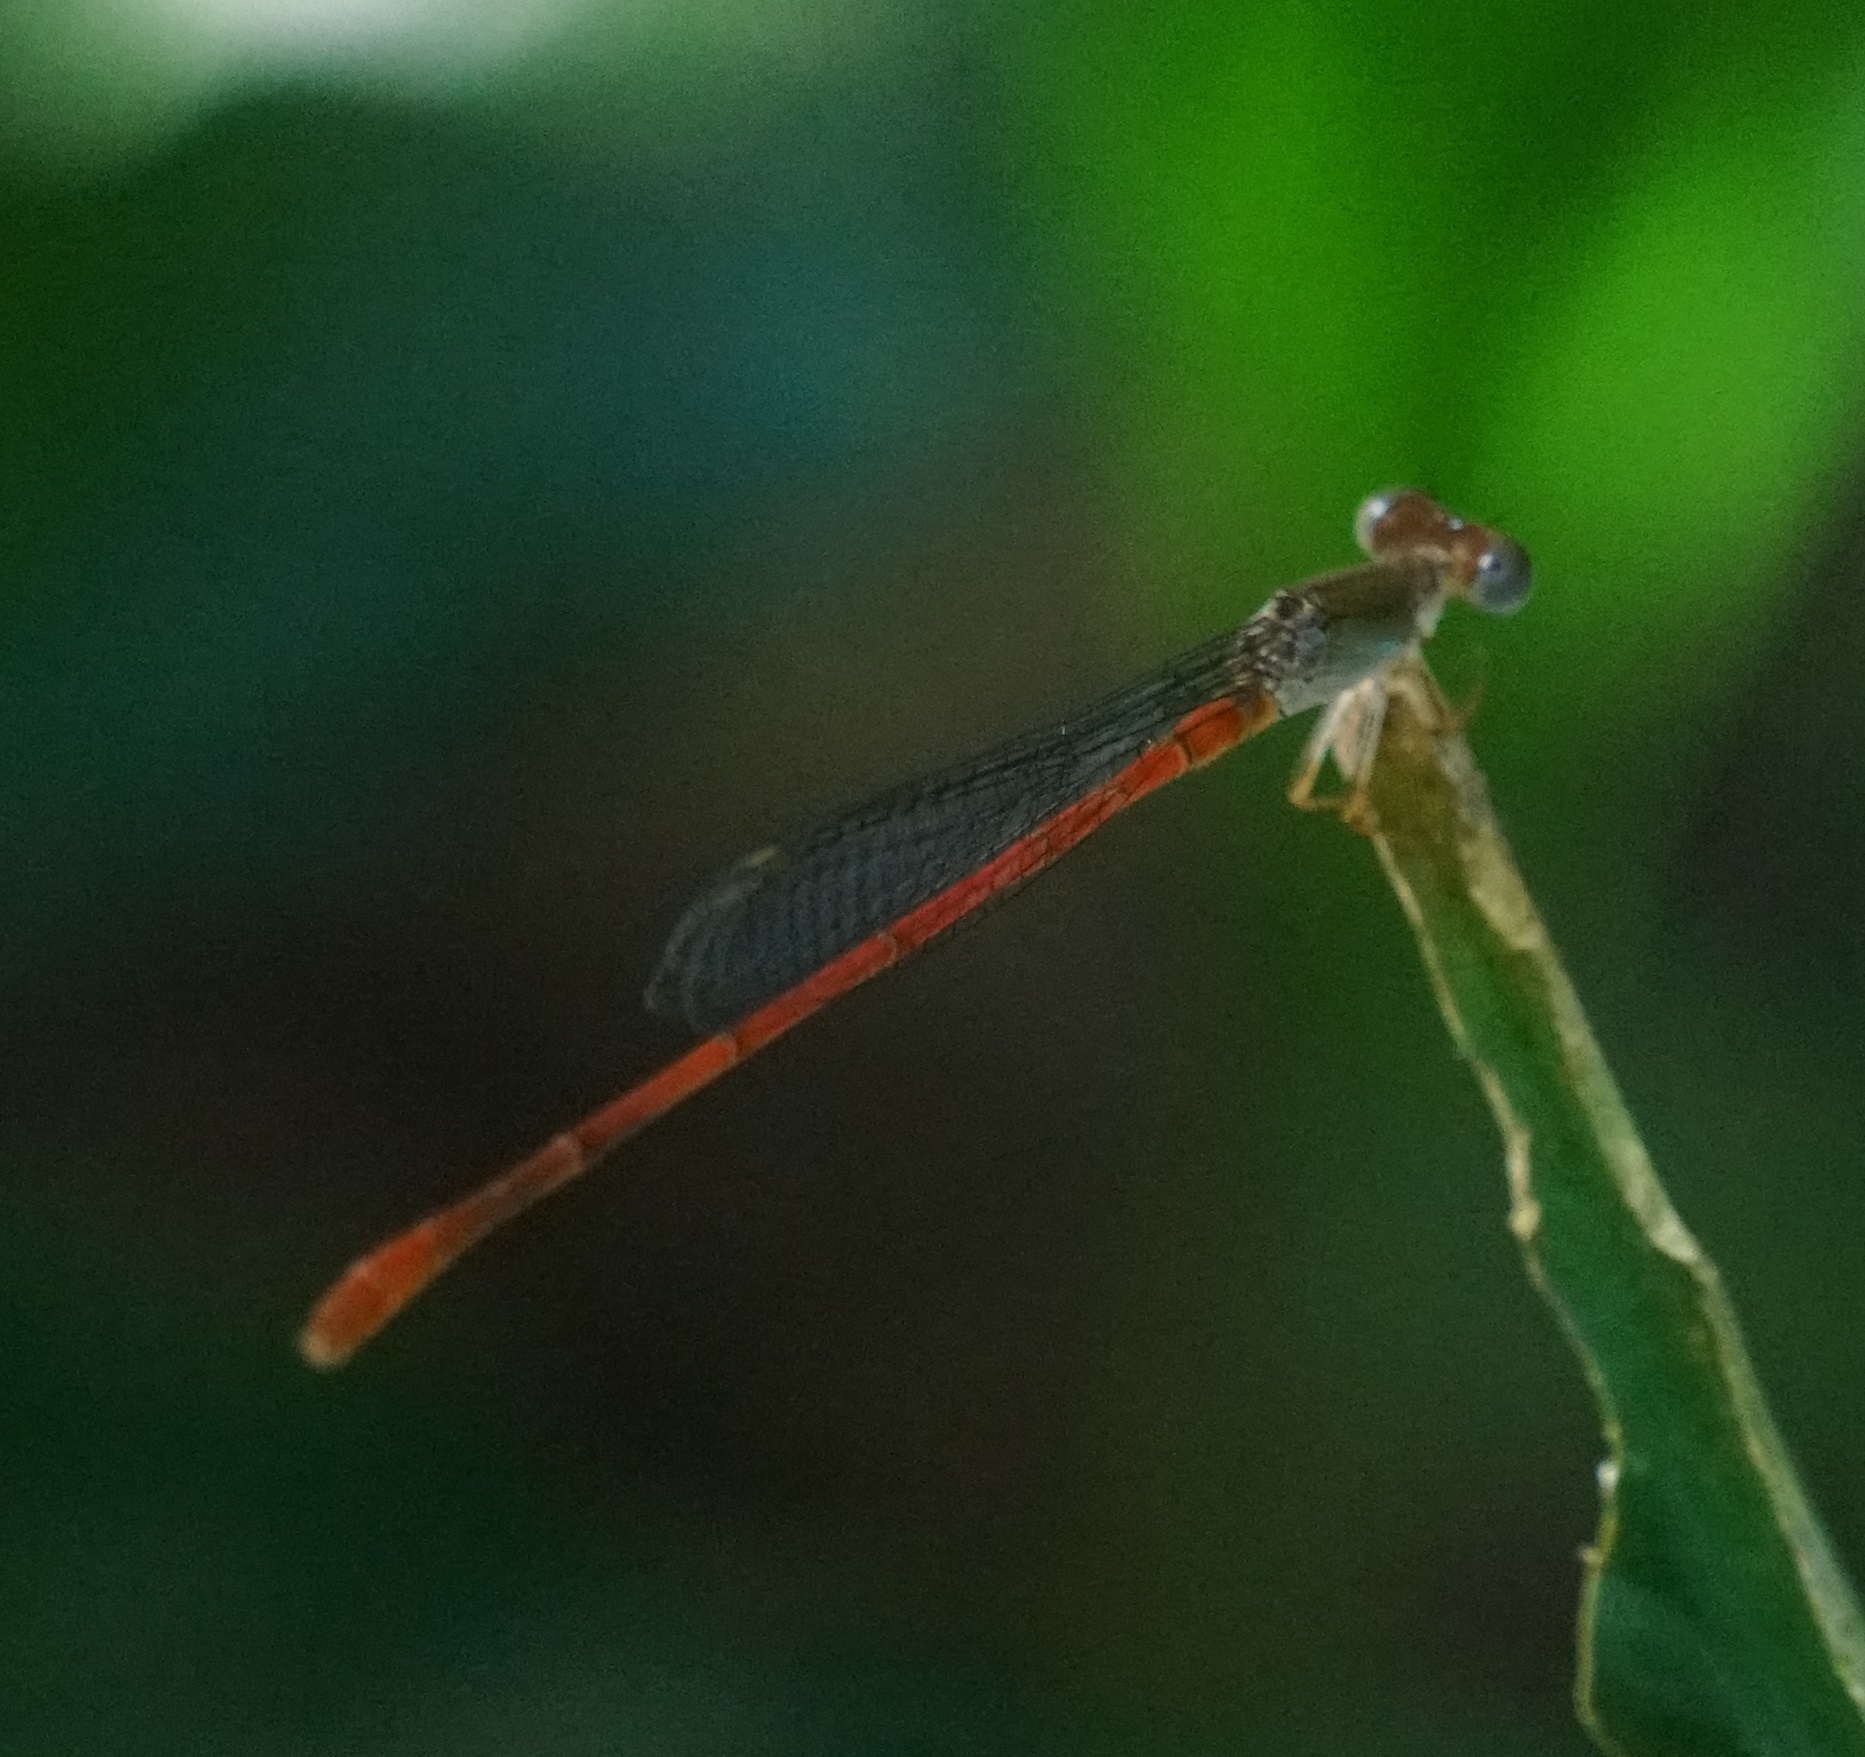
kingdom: Animalia
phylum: Arthropoda
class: Insecta
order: Odonata
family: Coenagrionidae
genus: Ceriagrion
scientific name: Ceriagrion aeruginosum
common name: Redtail
